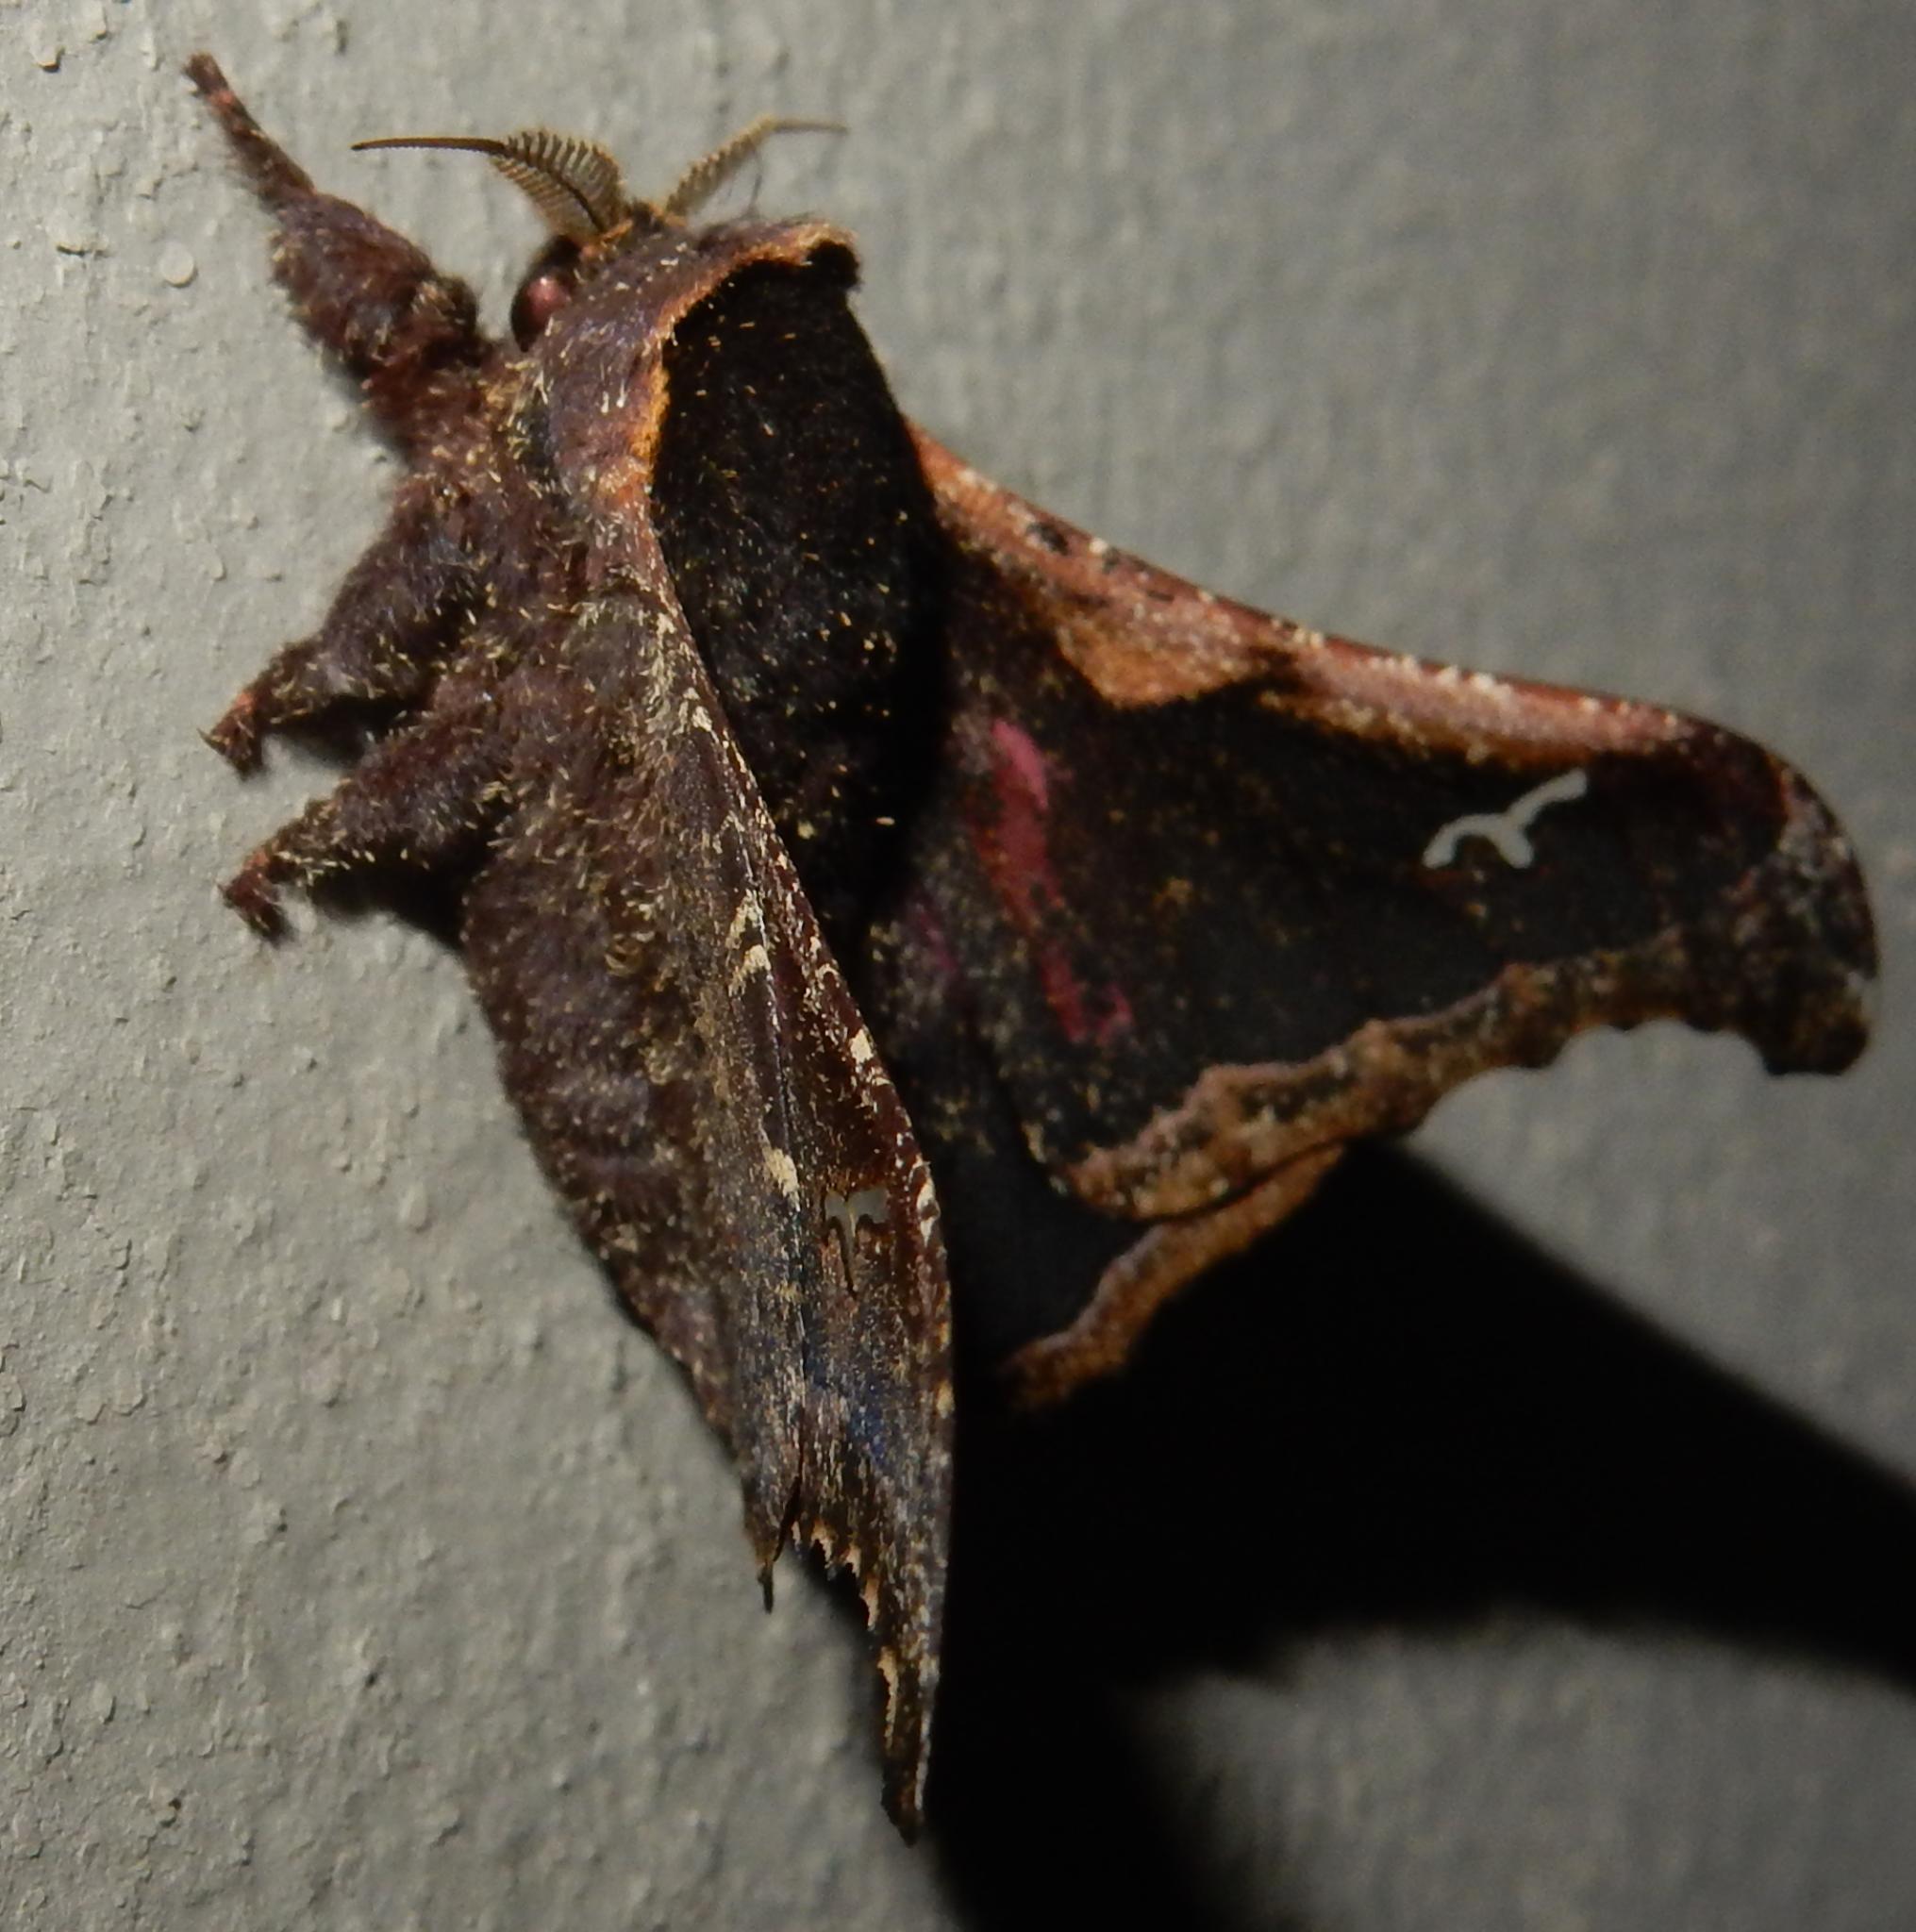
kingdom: Animalia
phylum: Arthropoda
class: Insecta
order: Lepidoptera
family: Saturniidae
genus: Ludia
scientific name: Ludia goniata
